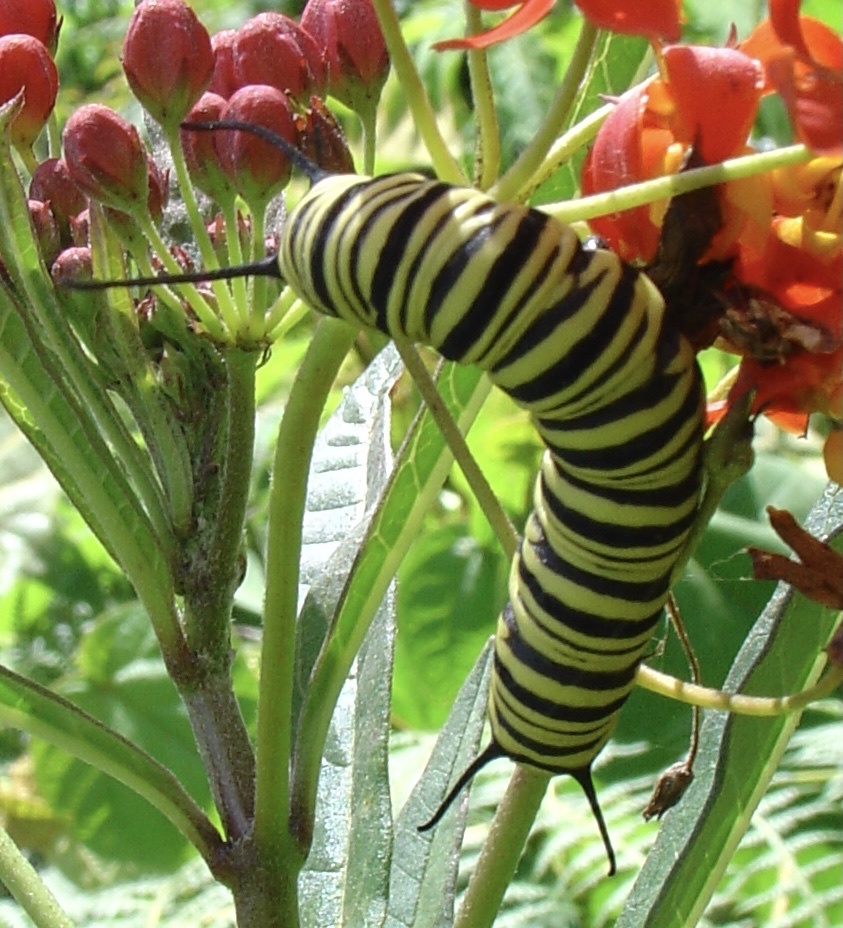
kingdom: Animalia
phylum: Arthropoda
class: Insecta
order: Lepidoptera
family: Nymphalidae
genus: Danaus
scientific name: Danaus erippus
